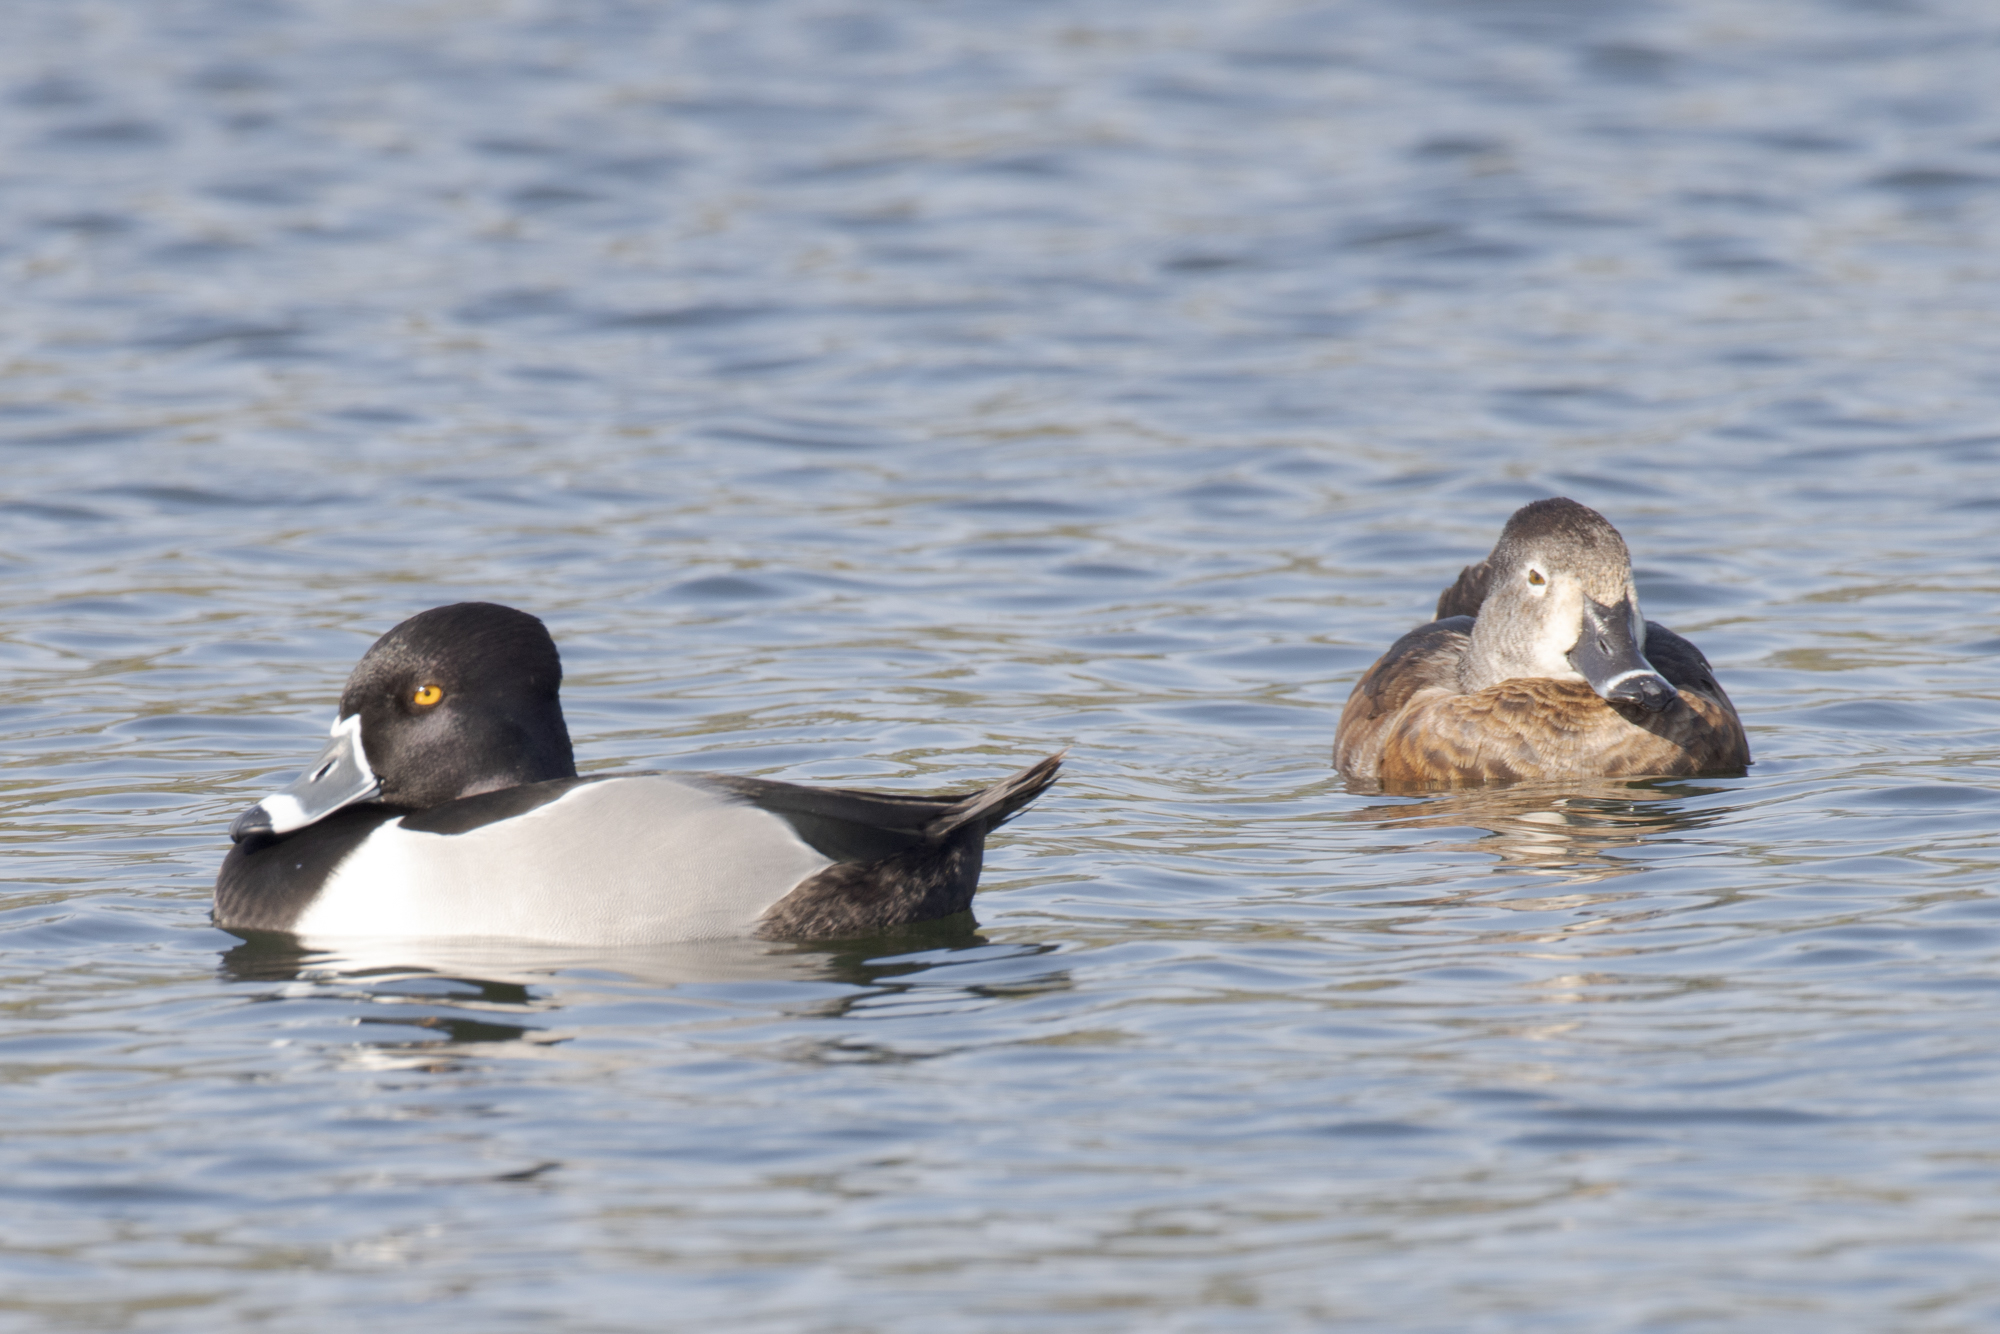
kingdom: Animalia
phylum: Chordata
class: Aves
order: Anseriformes
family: Anatidae
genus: Aythya
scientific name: Aythya collaris
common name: Ring-necked duck
